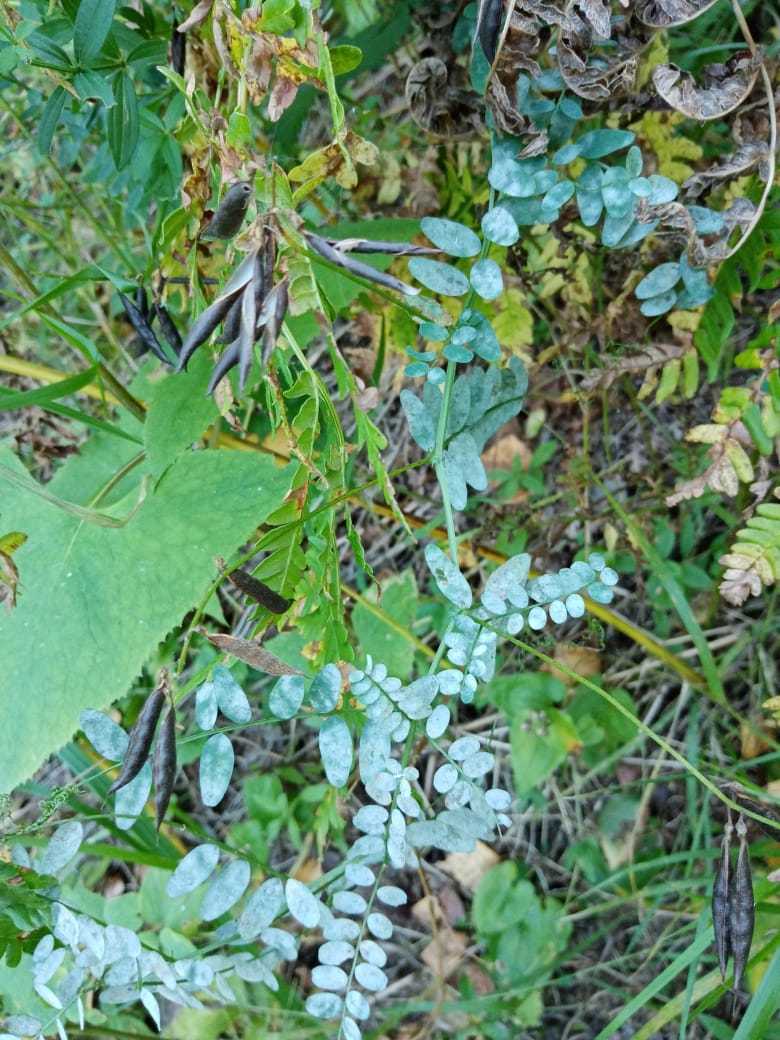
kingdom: Plantae
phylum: Tracheophyta
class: Magnoliopsida
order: Fabales
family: Fabaceae
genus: Vicia
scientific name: Vicia sylvatica
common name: Wood vetch
